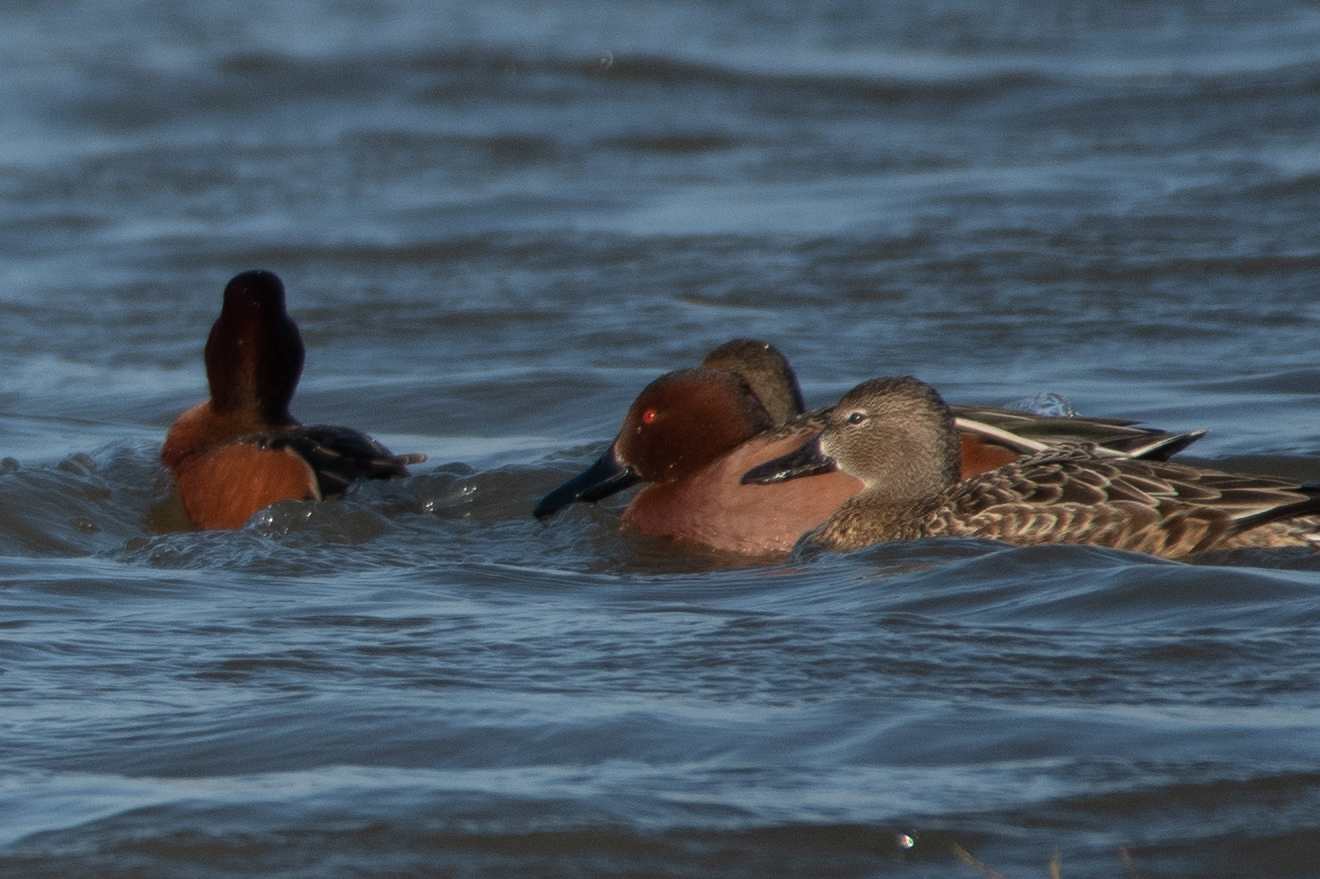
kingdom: Animalia
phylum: Chordata
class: Aves
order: Anseriformes
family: Anatidae
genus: Spatula
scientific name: Spatula cyanoptera
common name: Cinnamon teal
